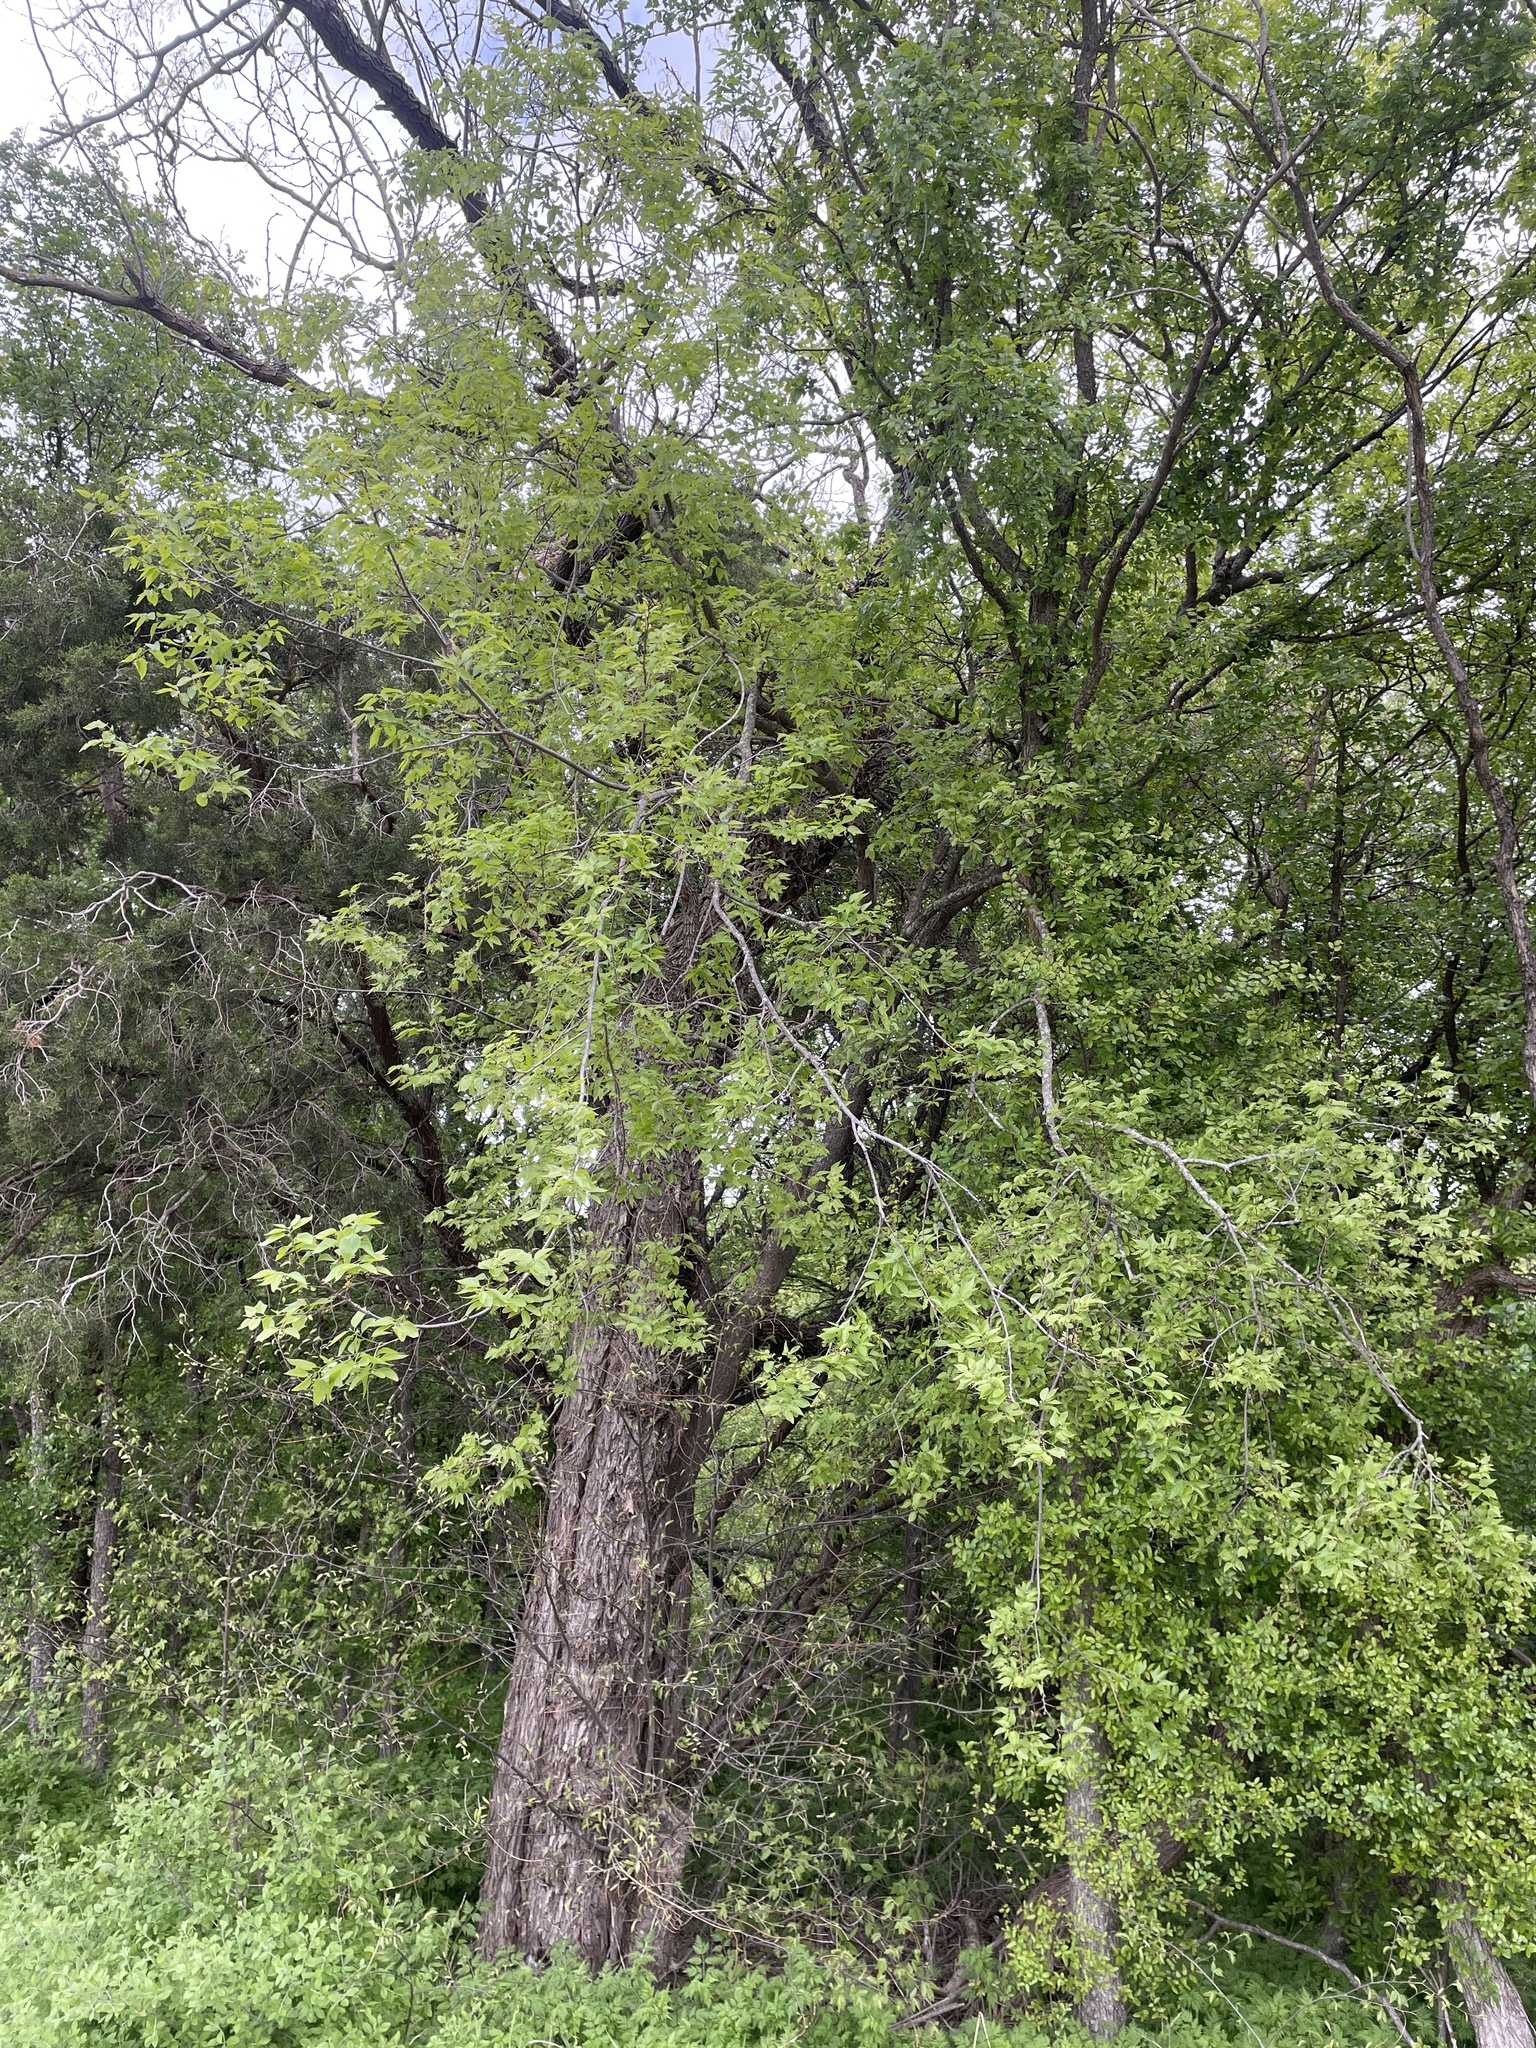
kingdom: Plantae
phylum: Tracheophyta
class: Magnoliopsida
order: Rosales
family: Cannabaceae
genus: Celtis
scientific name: Celtis laevigata
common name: Sugarberry
